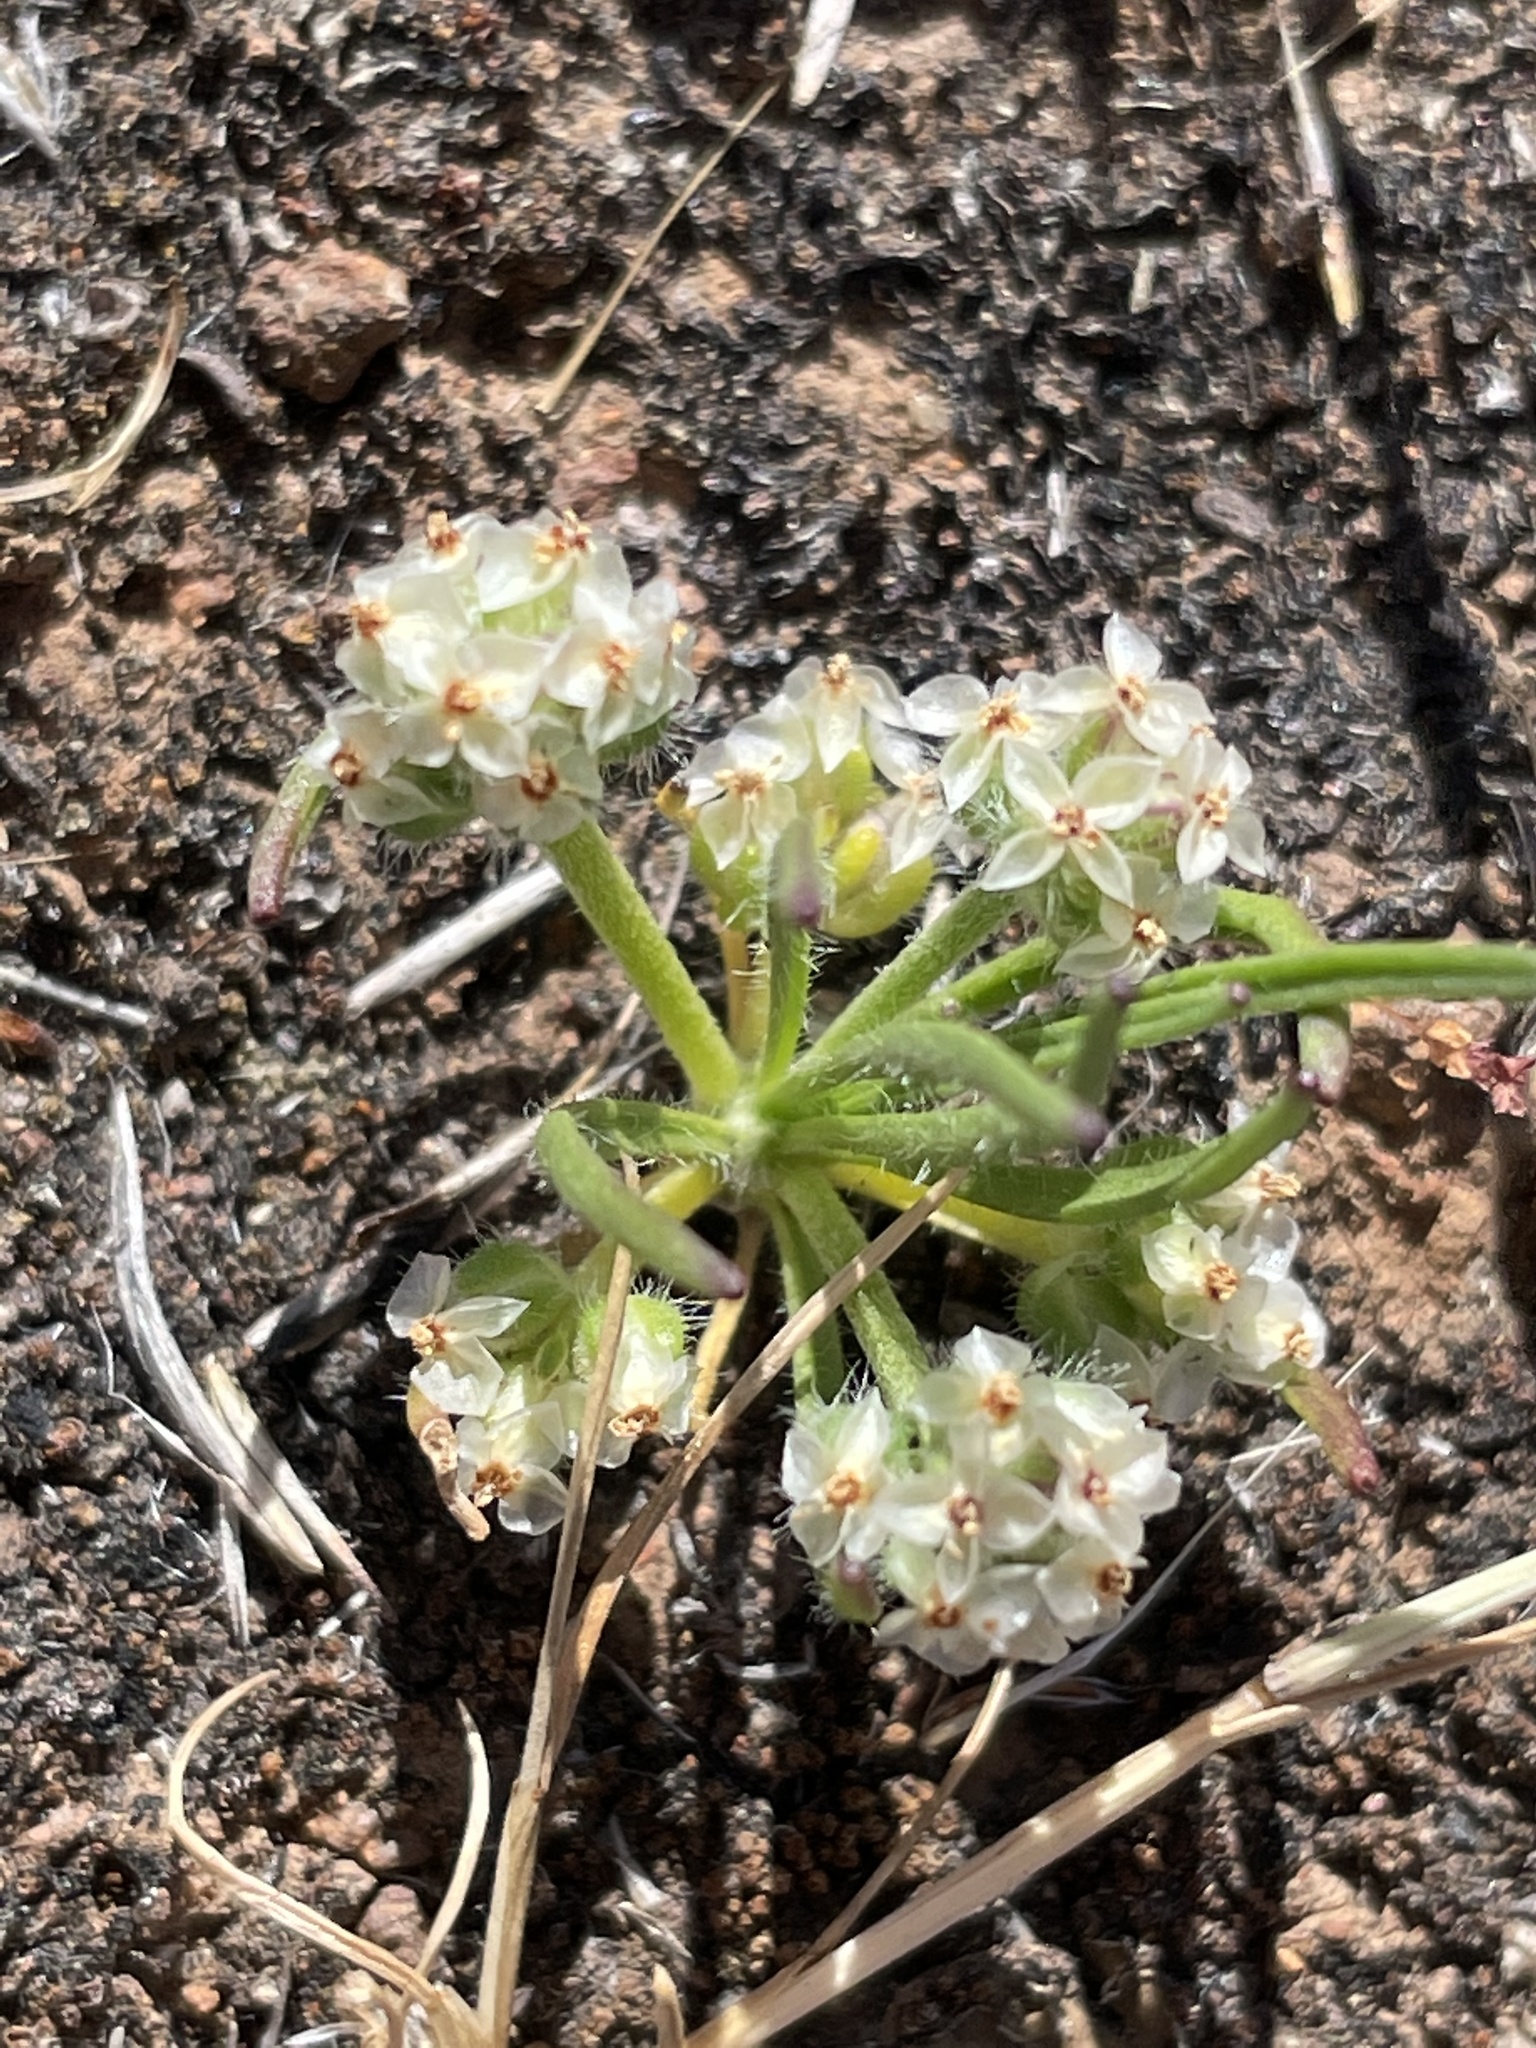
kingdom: Plantae
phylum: Tracheophyta
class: Magnoliopsida
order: Lamiales
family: Plantaginaceae
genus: Plantago
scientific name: Plantago erecta
